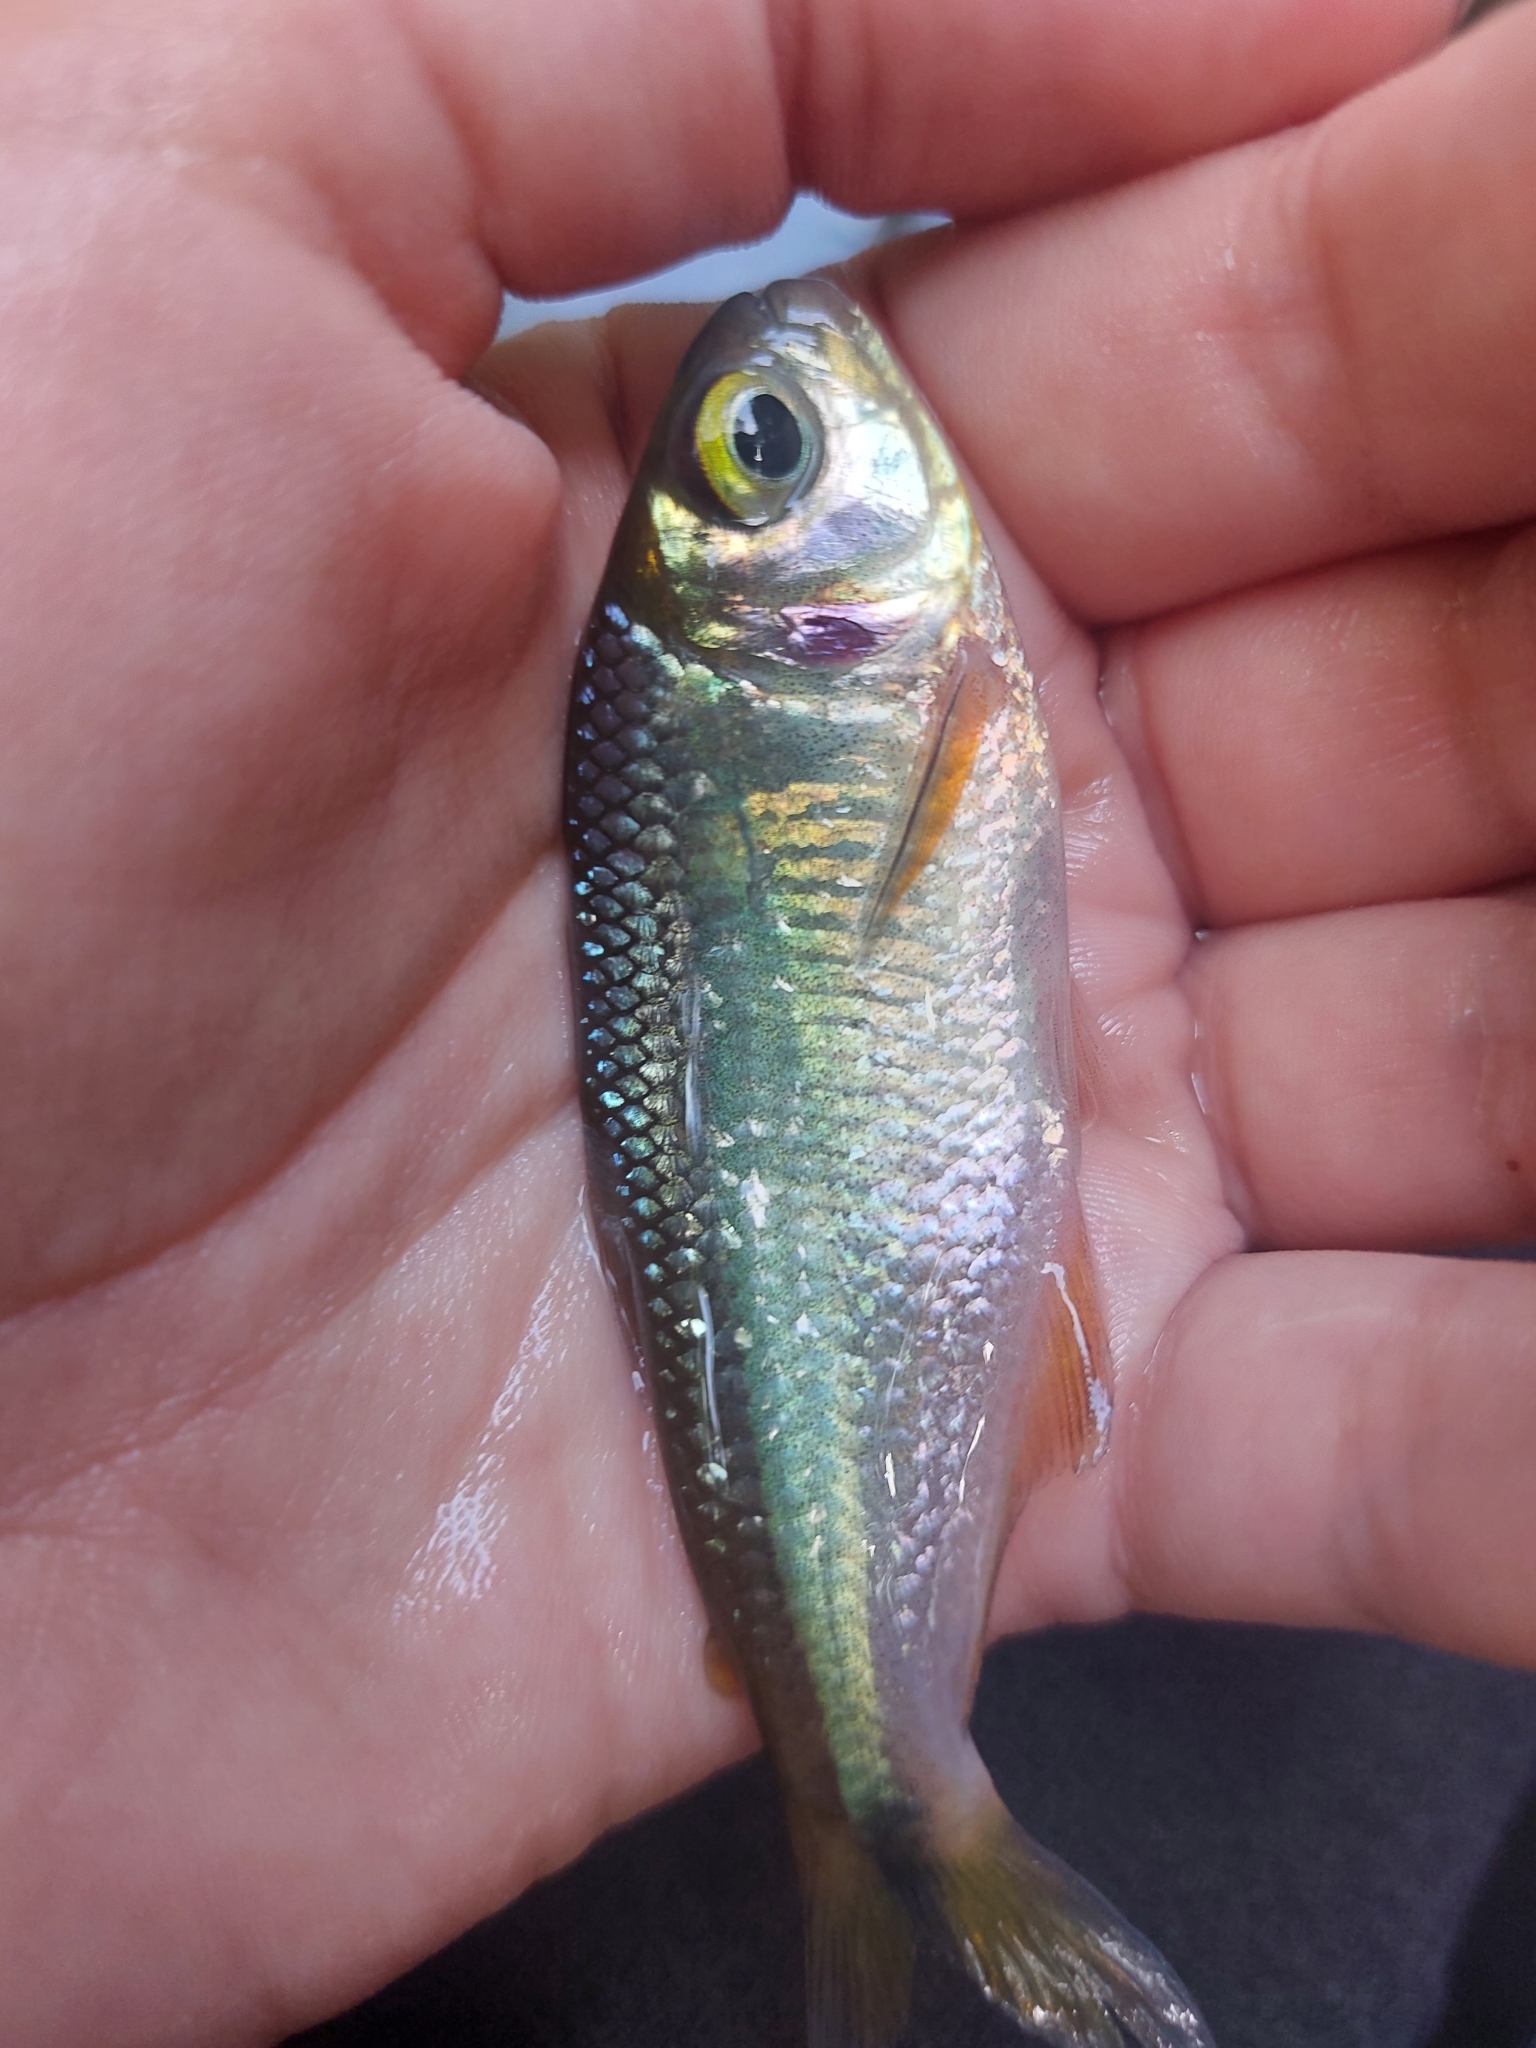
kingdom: Animalia
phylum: Chordata
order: Characiformes
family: Characidae
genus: Bryconamericus
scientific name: Bryconamericus scleroparius
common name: Creek tetra
